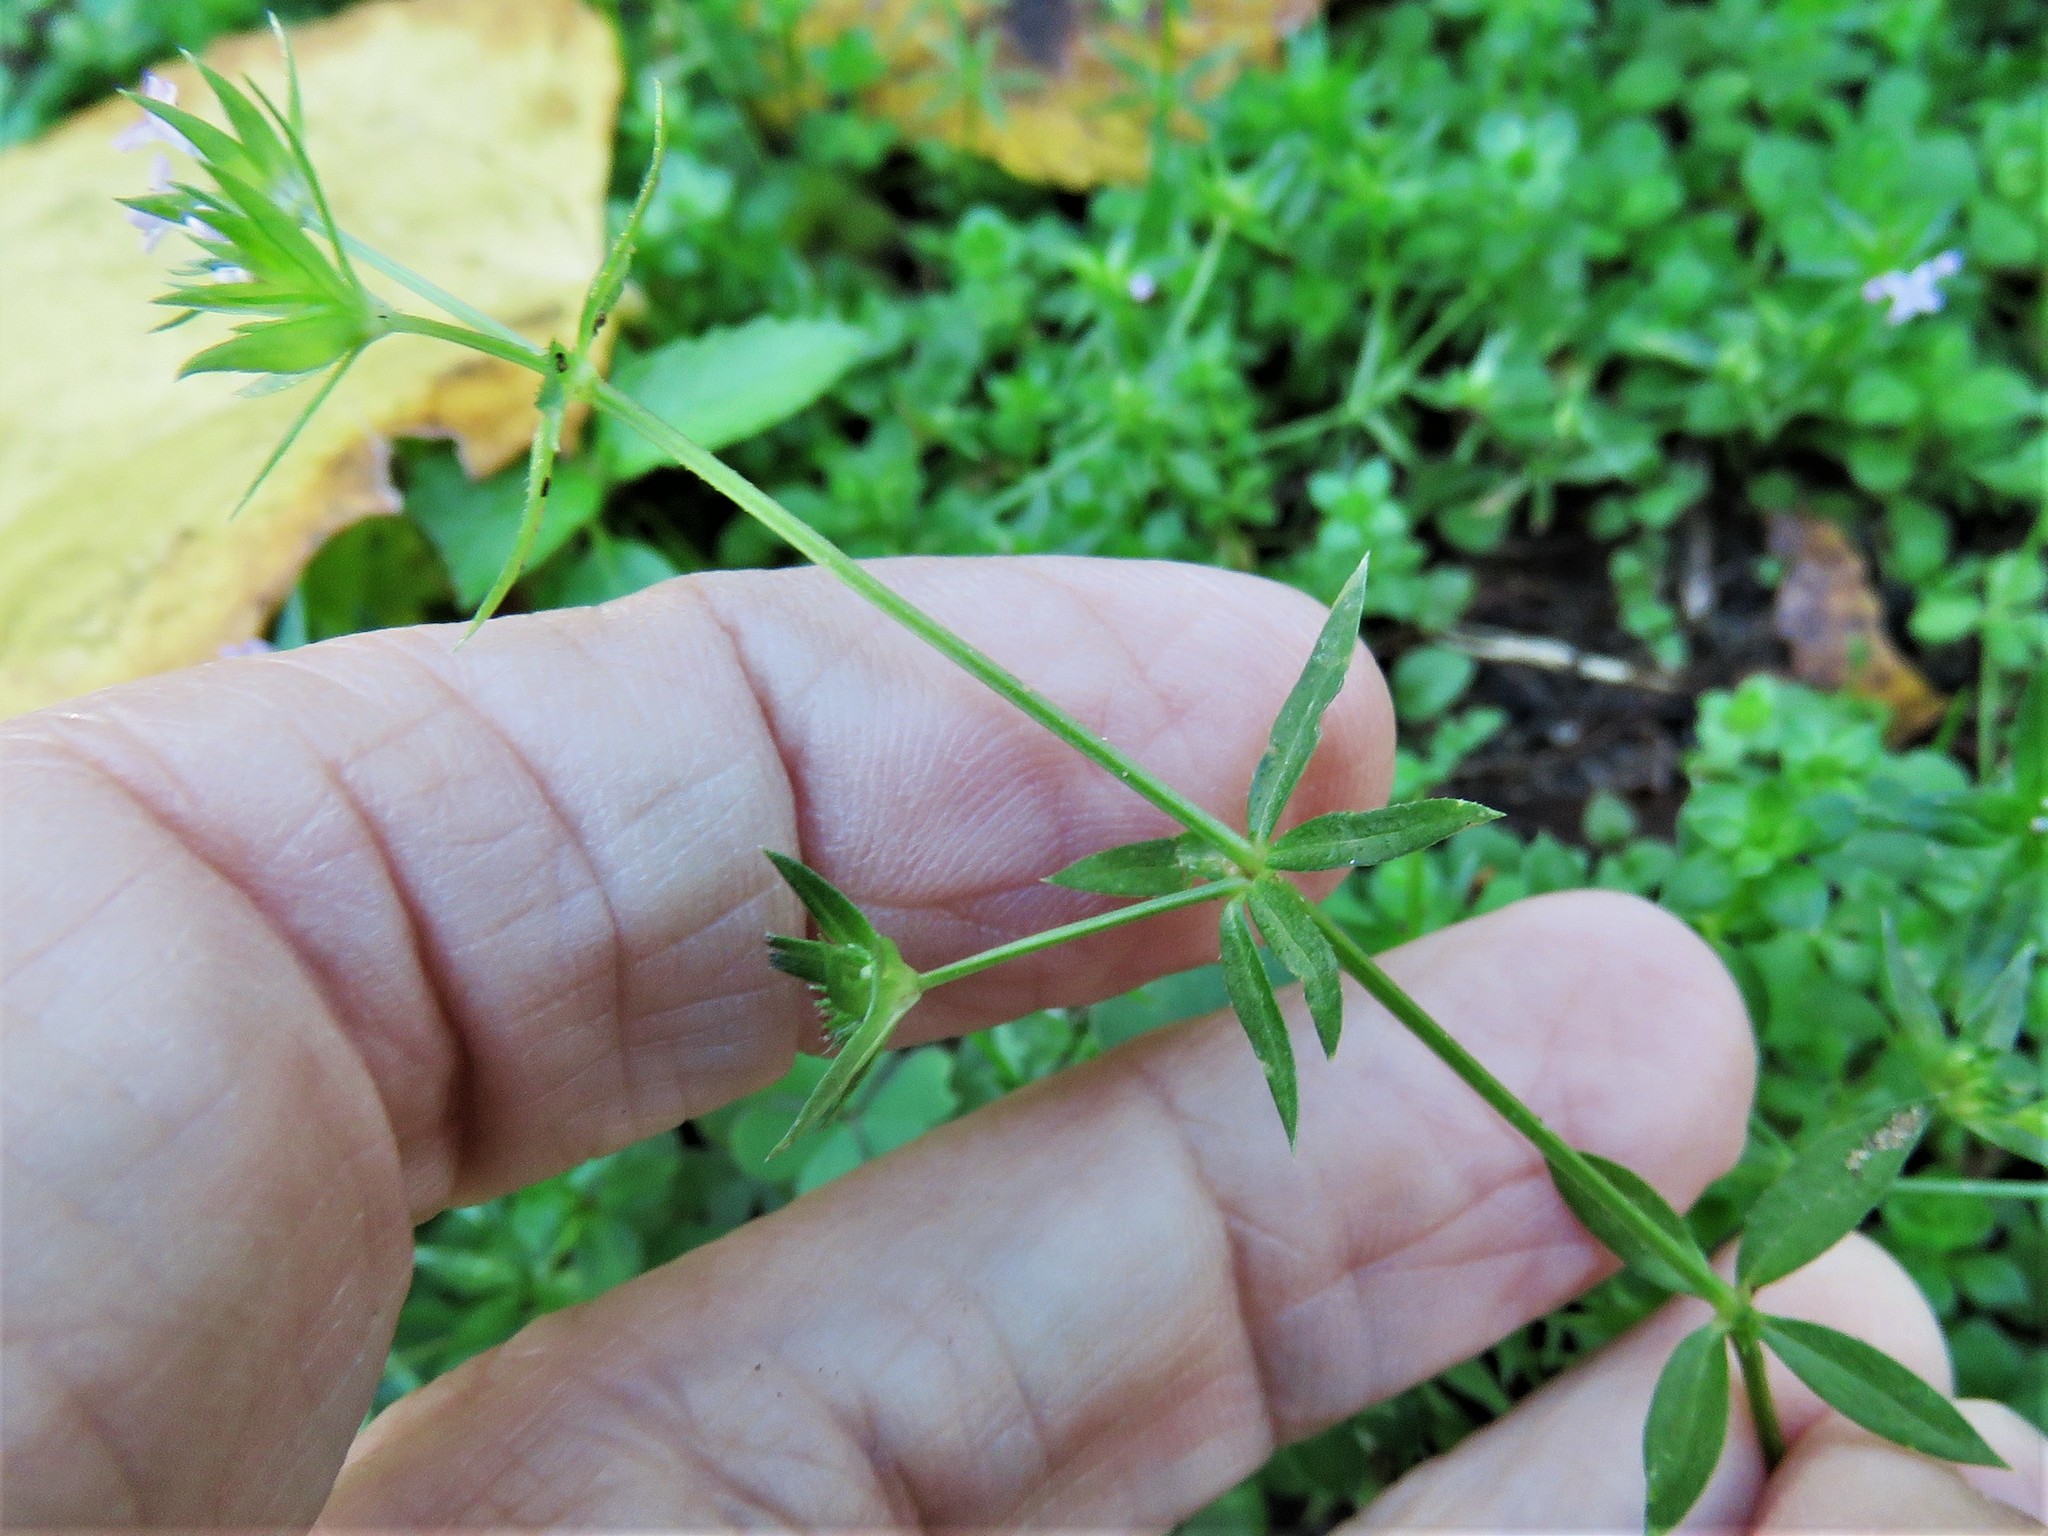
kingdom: Plantae
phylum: Tracheophyta
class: Magnoliopsida
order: Gentianales
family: Rubiaceae
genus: Sherardia
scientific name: Sherardia arvensis
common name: Field madder
